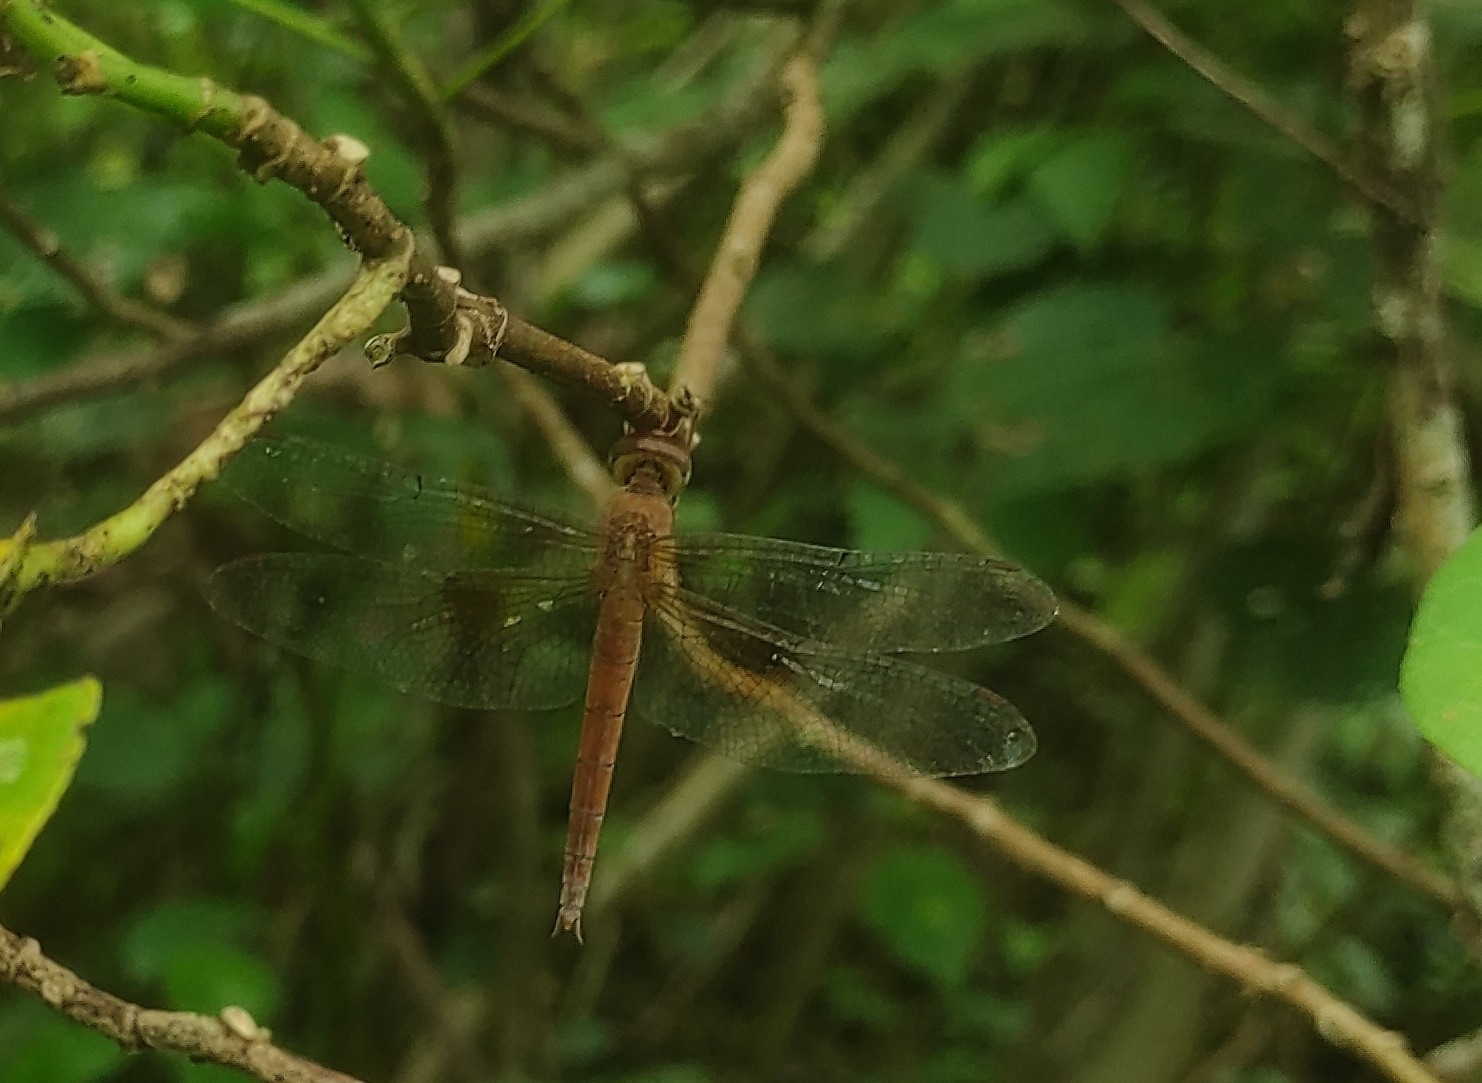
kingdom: Animalia
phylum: Arthropoda
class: Insecta
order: Odonata
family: Libellulidae
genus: Tholymis
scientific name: Tholymis tillarga
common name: Coral-tailed cloud wing
